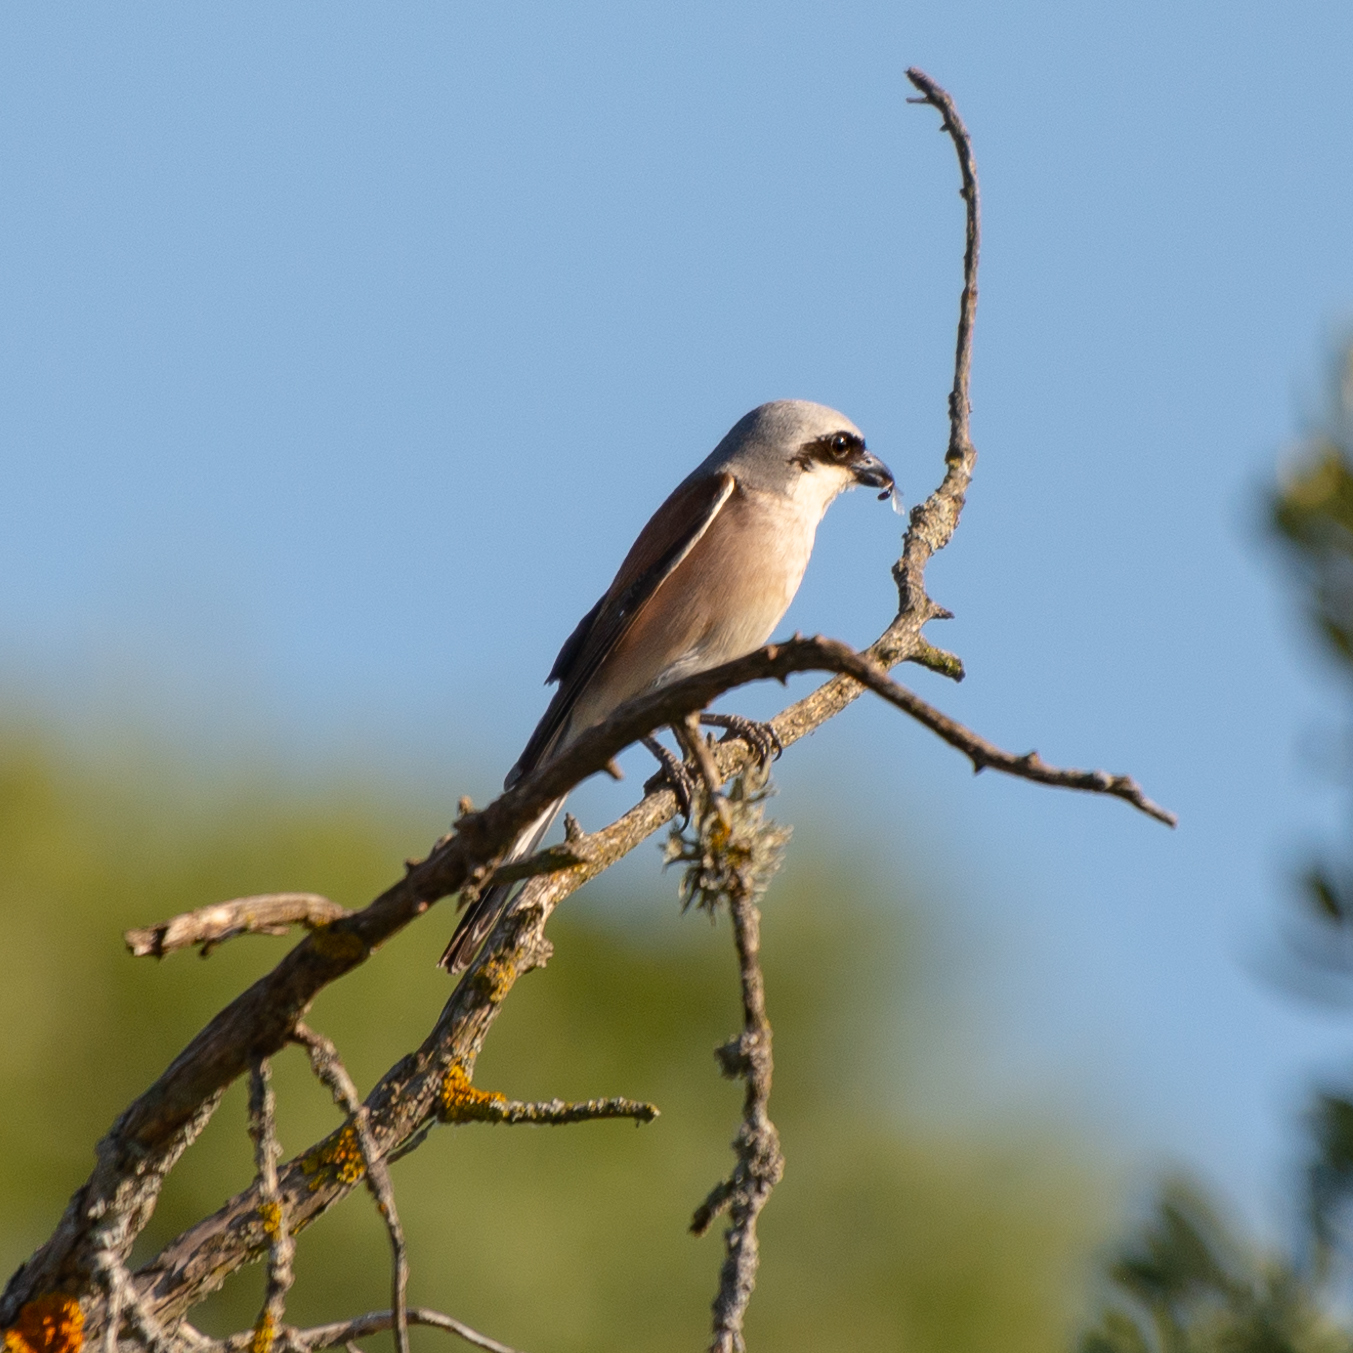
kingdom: Animalia
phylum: Chordata
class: Aves
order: Passeriformes
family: Laniidae
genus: Lanius
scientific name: Lanius collurio
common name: Red-backed shrike
